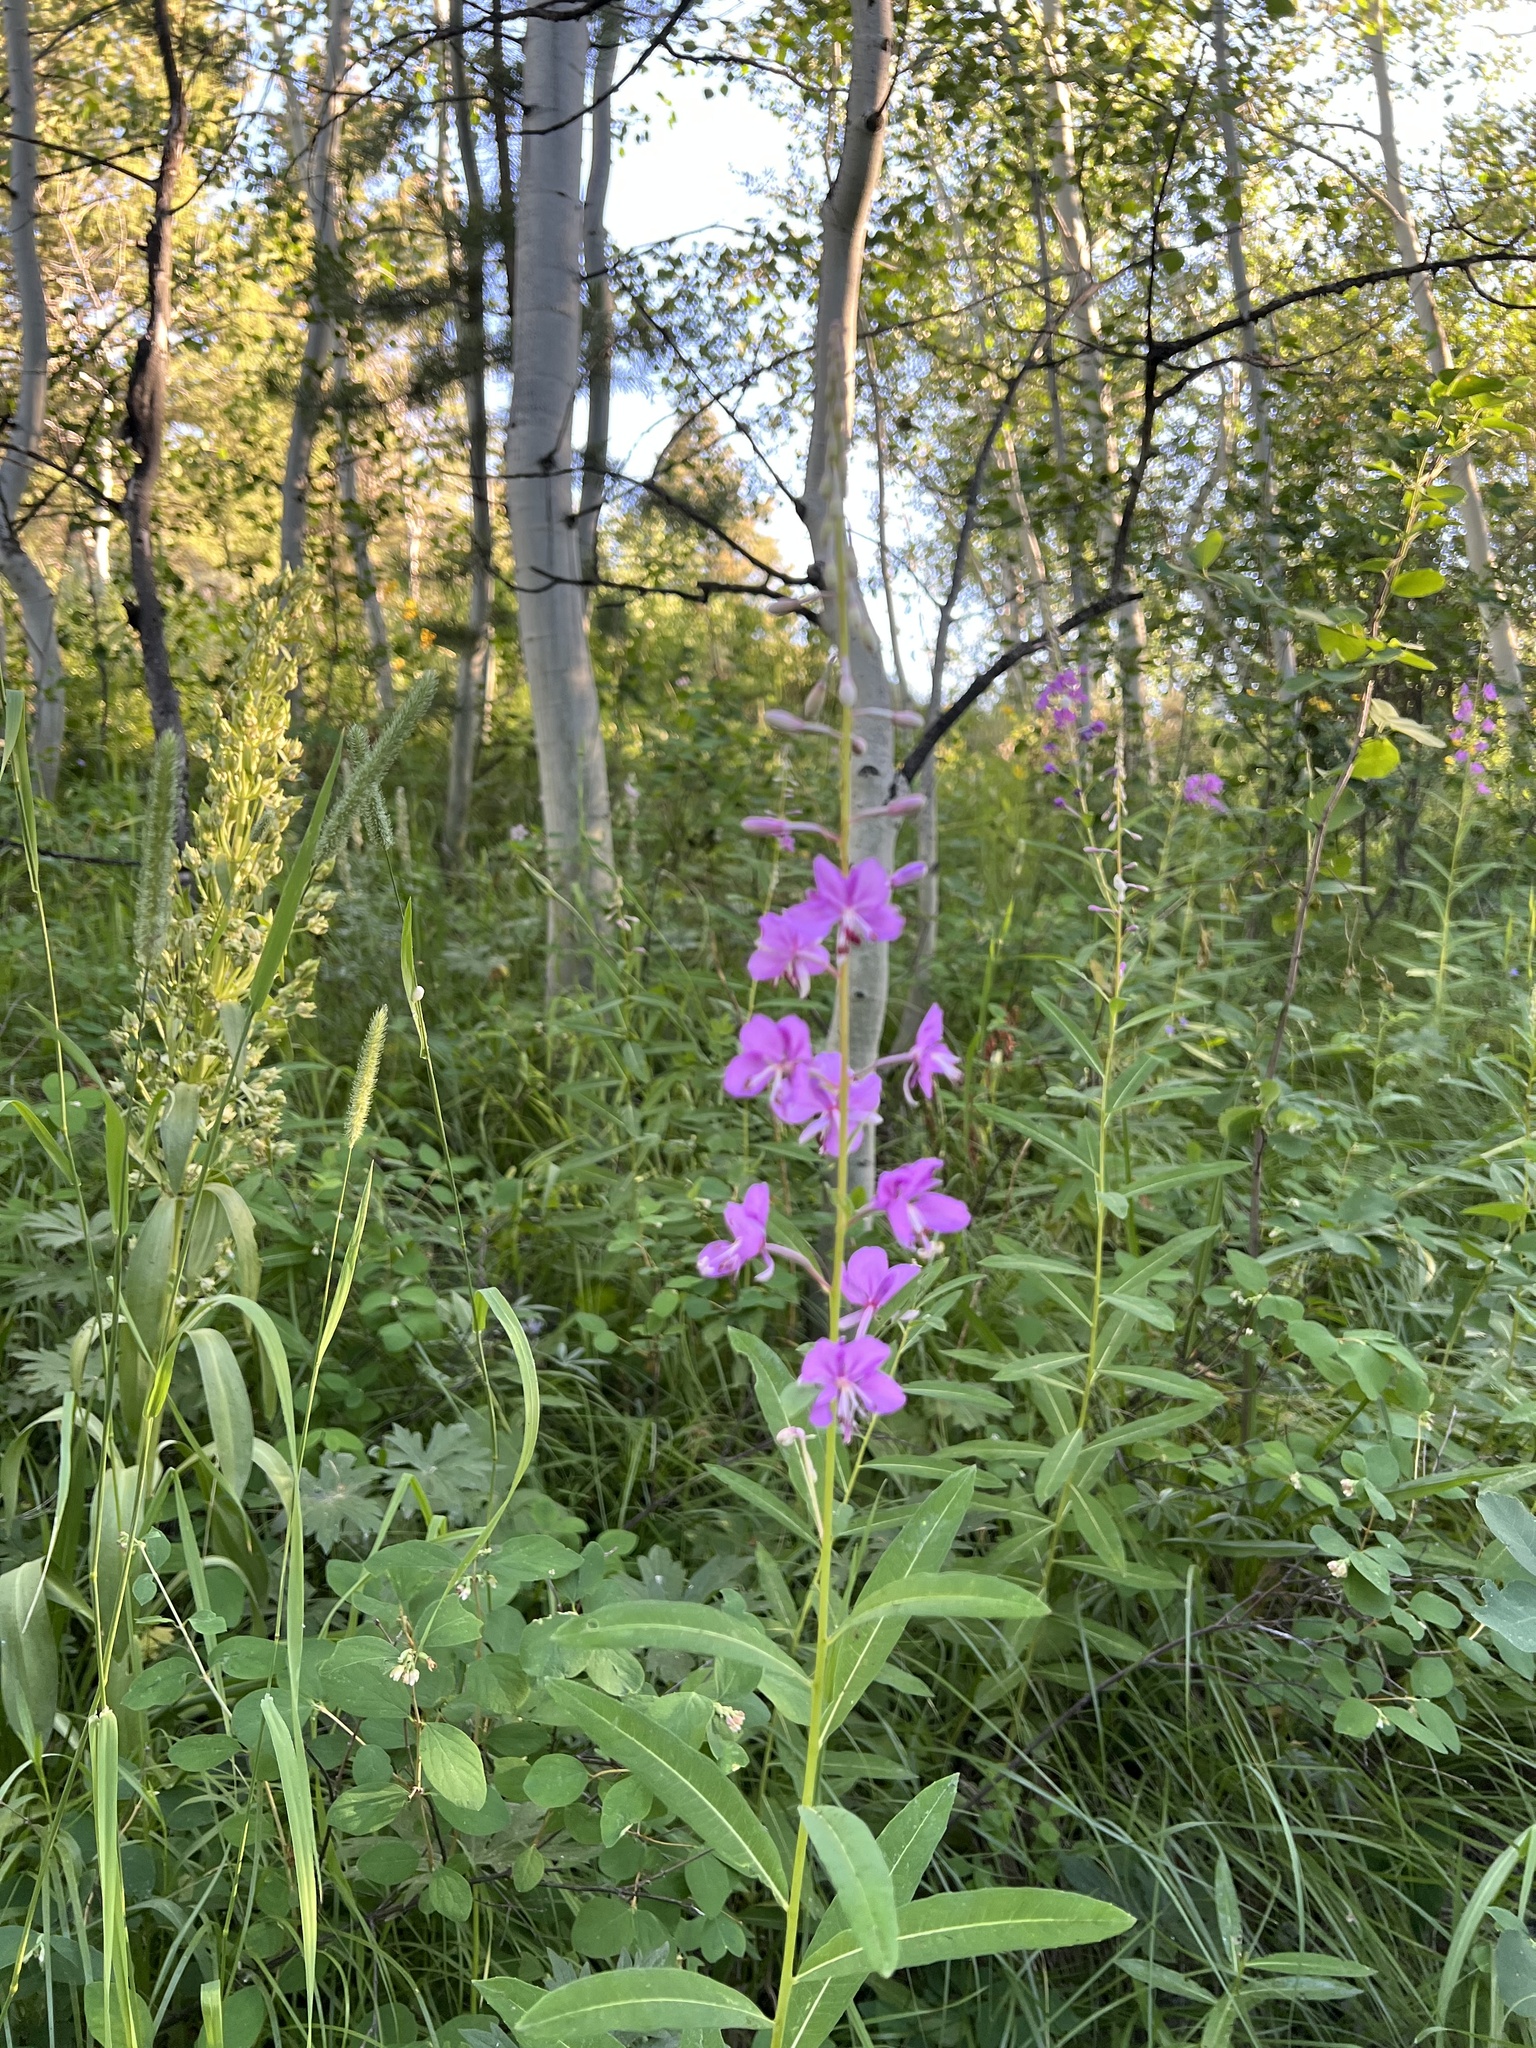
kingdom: Plantae
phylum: Tracheophyta
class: Magnoliopsida
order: Myrtales
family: Onagraceae
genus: Chamaenerion
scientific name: Chamaenerion angustifolium
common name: Fireweed
